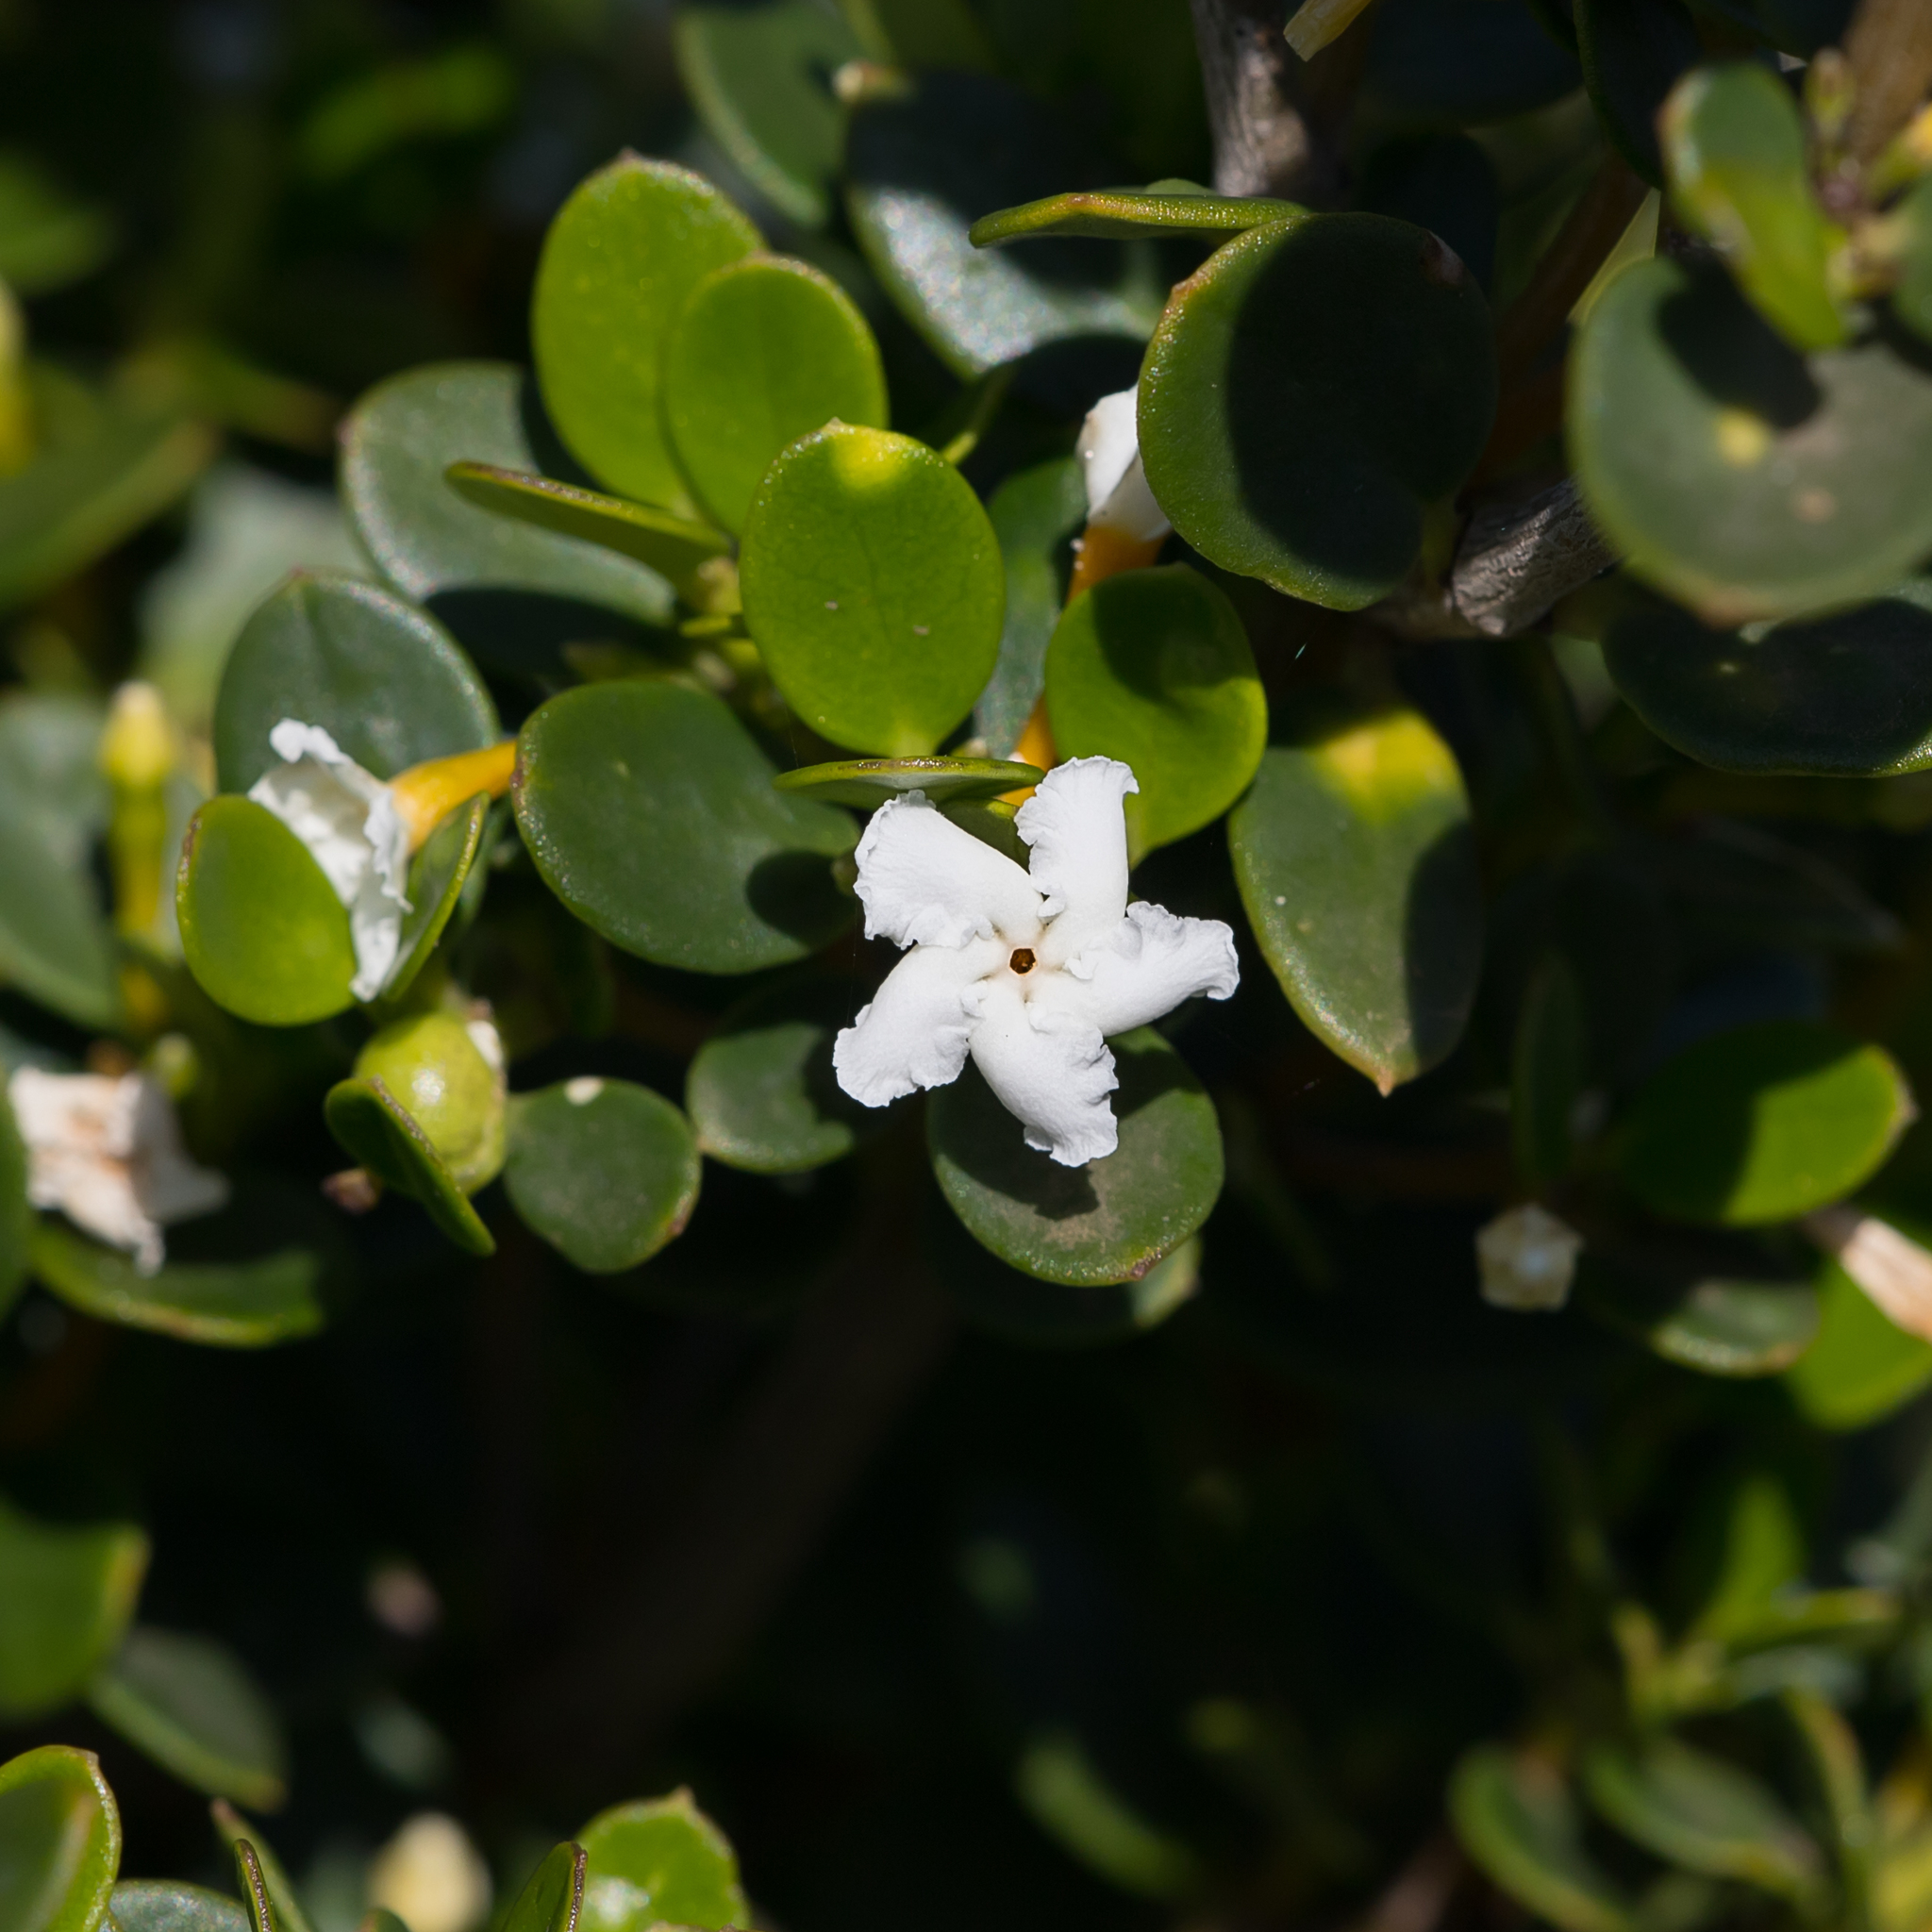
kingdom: Plantae
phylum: Tracheophyta
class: Magnoliopsida
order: Gentianales
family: Apocynaceae
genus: Alyxia
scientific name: Alyxia buxifolia
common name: Dysentery-bush
